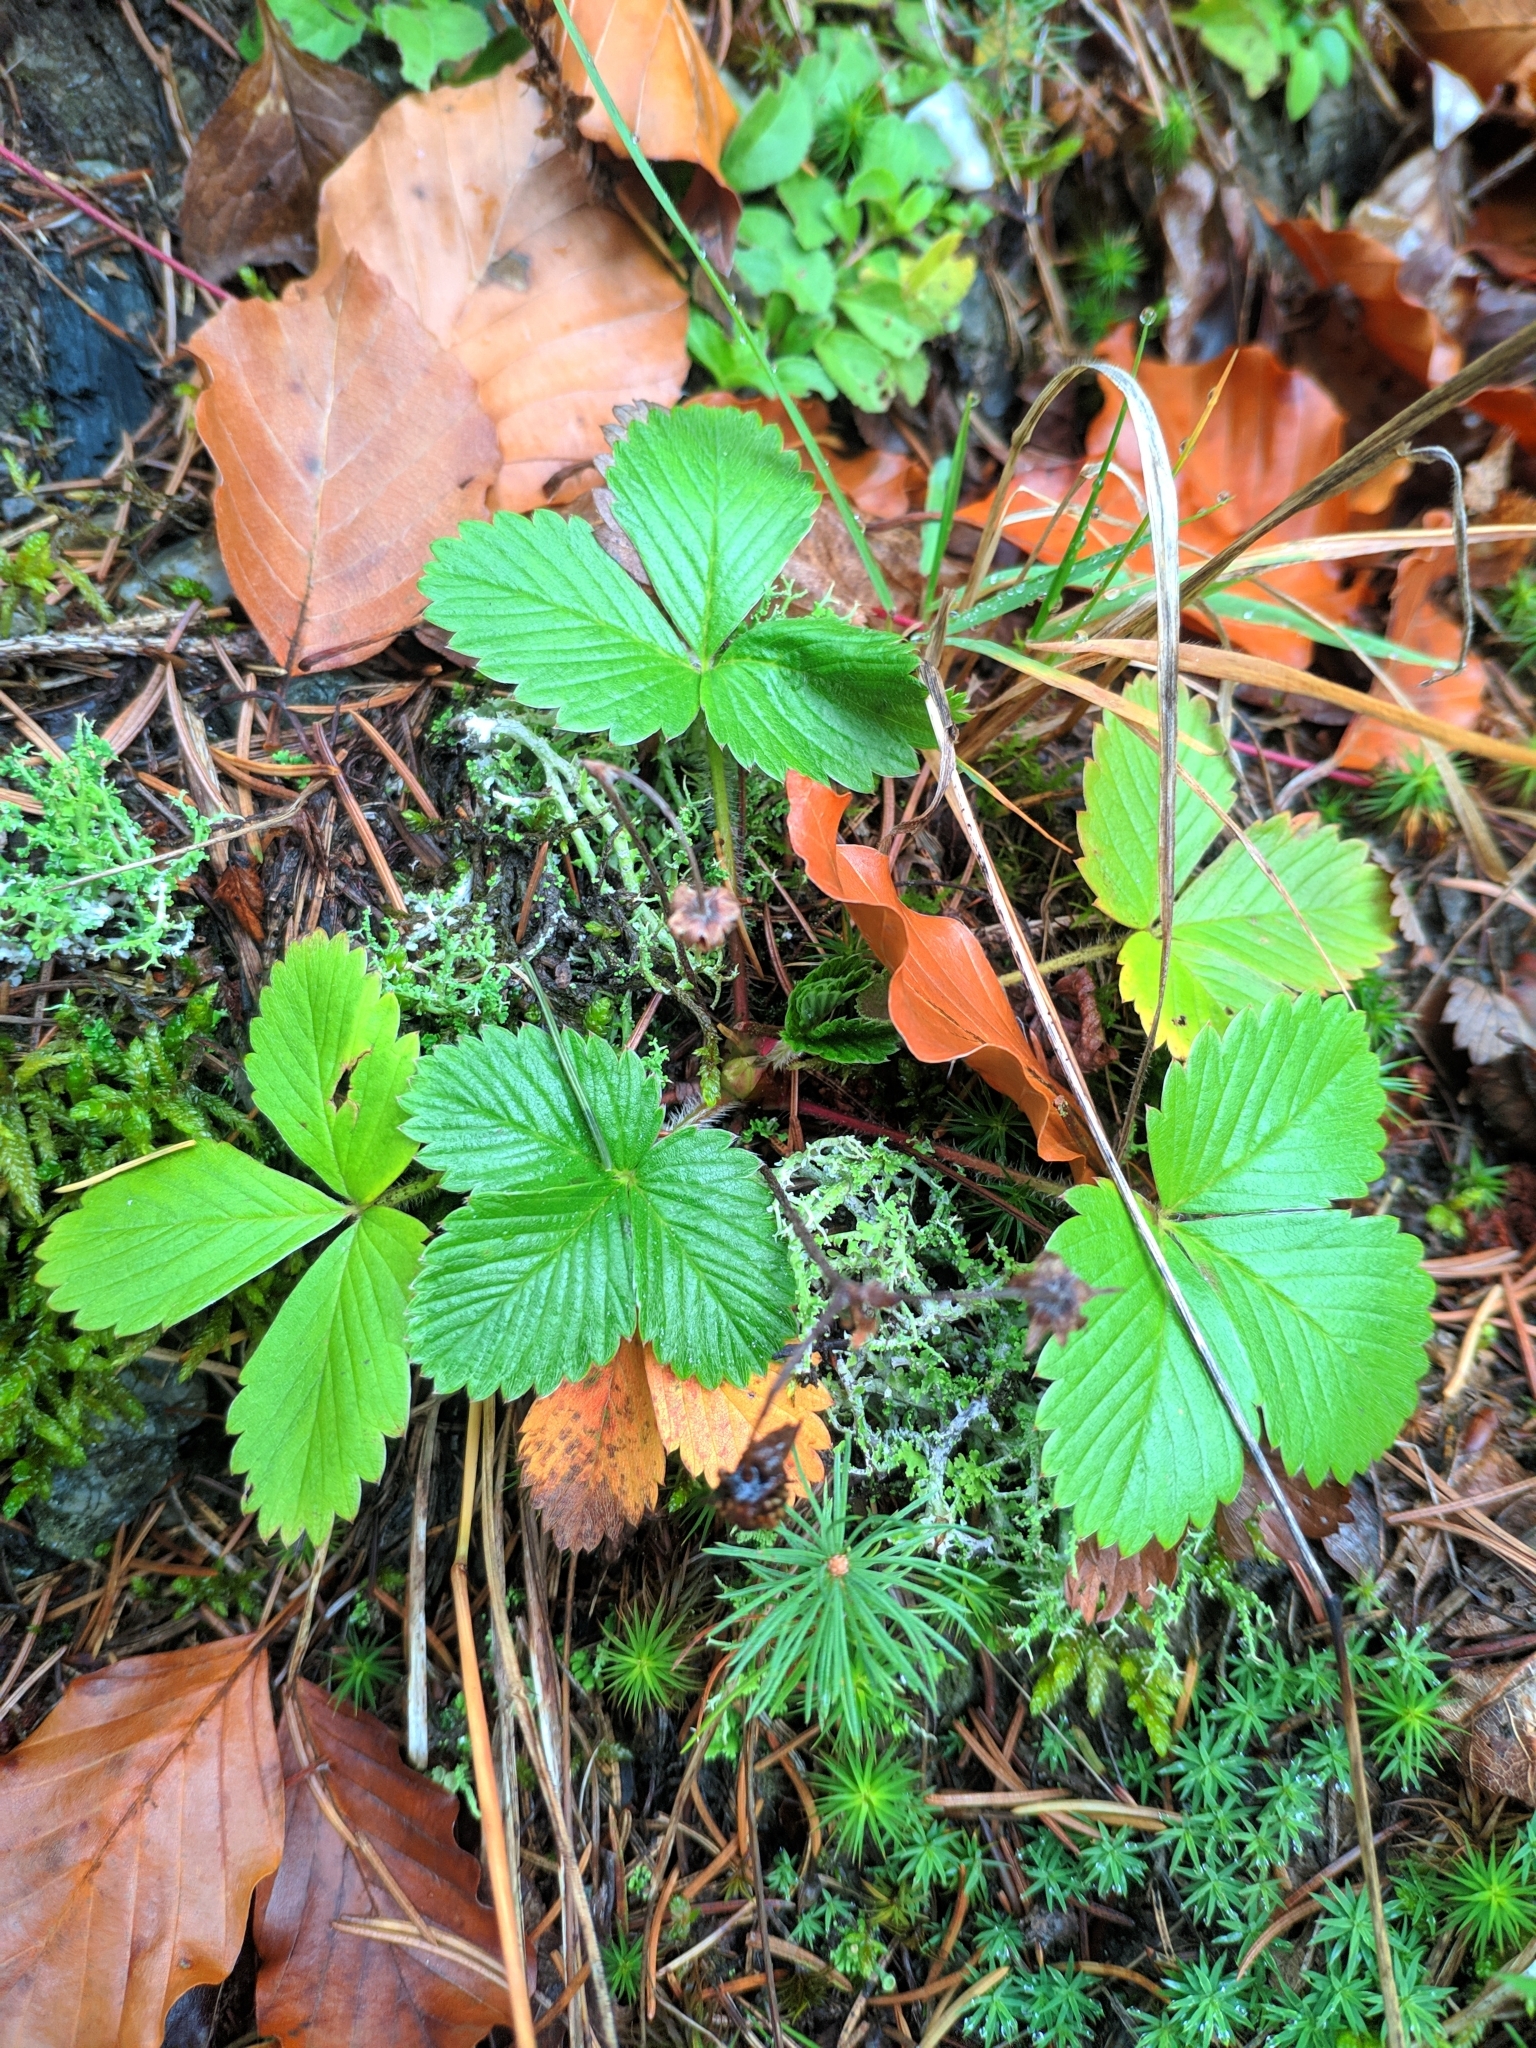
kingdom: Plantae
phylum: Tracheophyta
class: Magnoliopsida
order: Rosales
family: Rosaceae
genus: Fragaria
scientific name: Fragaria vesca
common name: Wild strawberry
